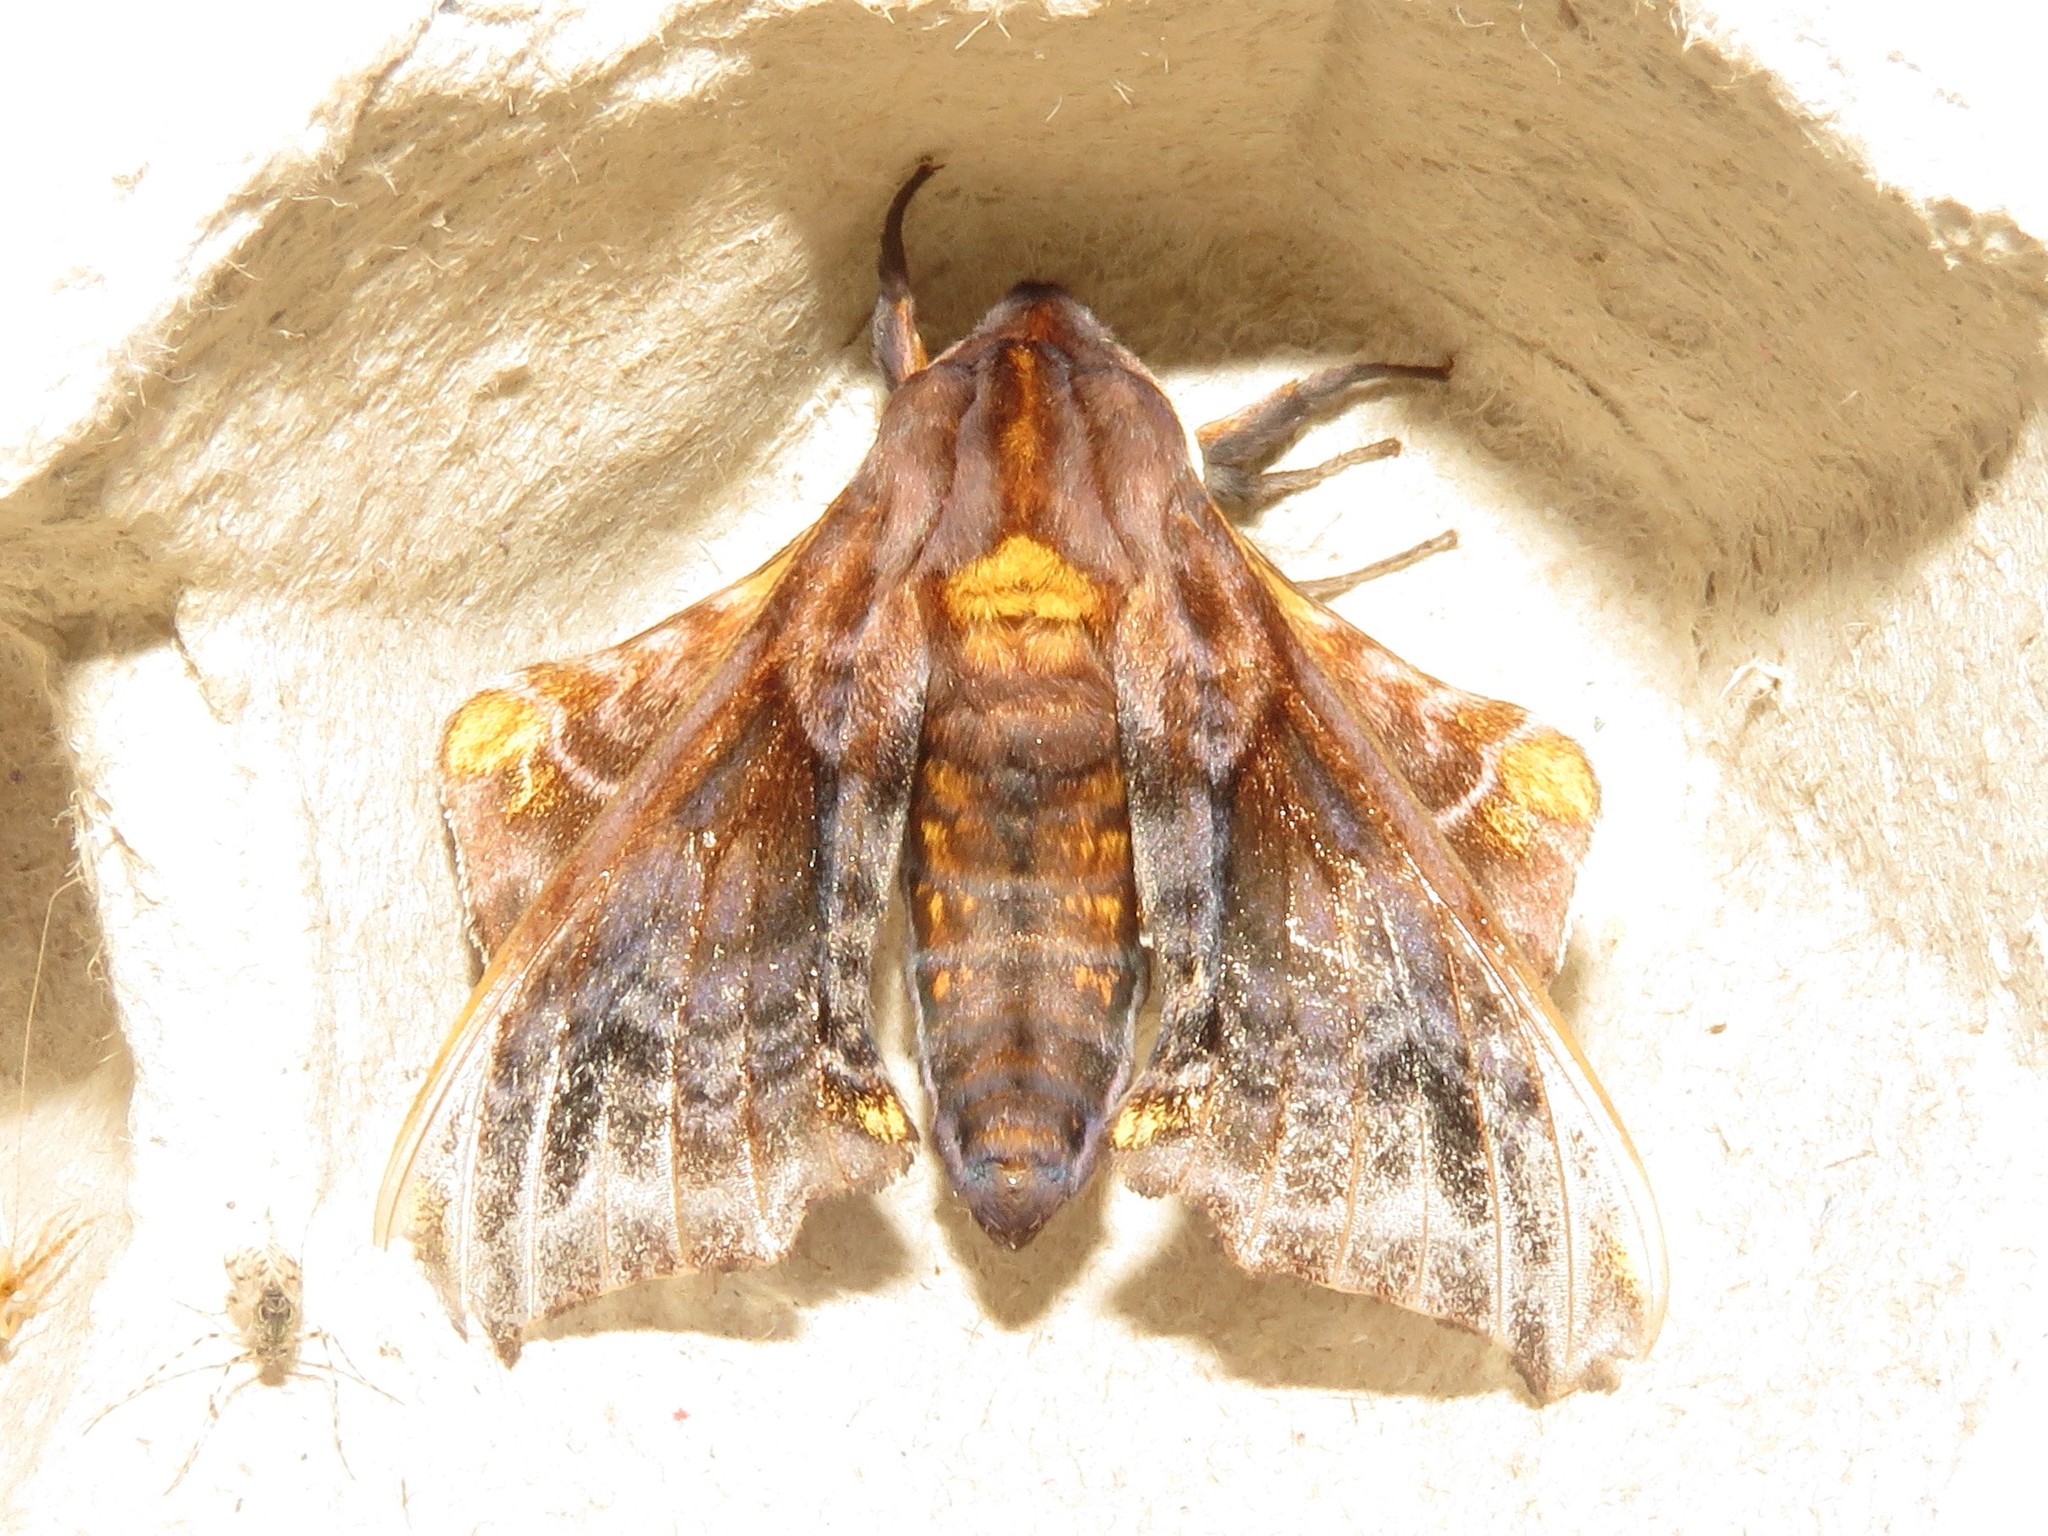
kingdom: Animalia
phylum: Arthropoda
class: Insecta
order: Lepidoptera
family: Sphingidae
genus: Paonias
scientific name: Paonias myops
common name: Small-eyed sphinx
